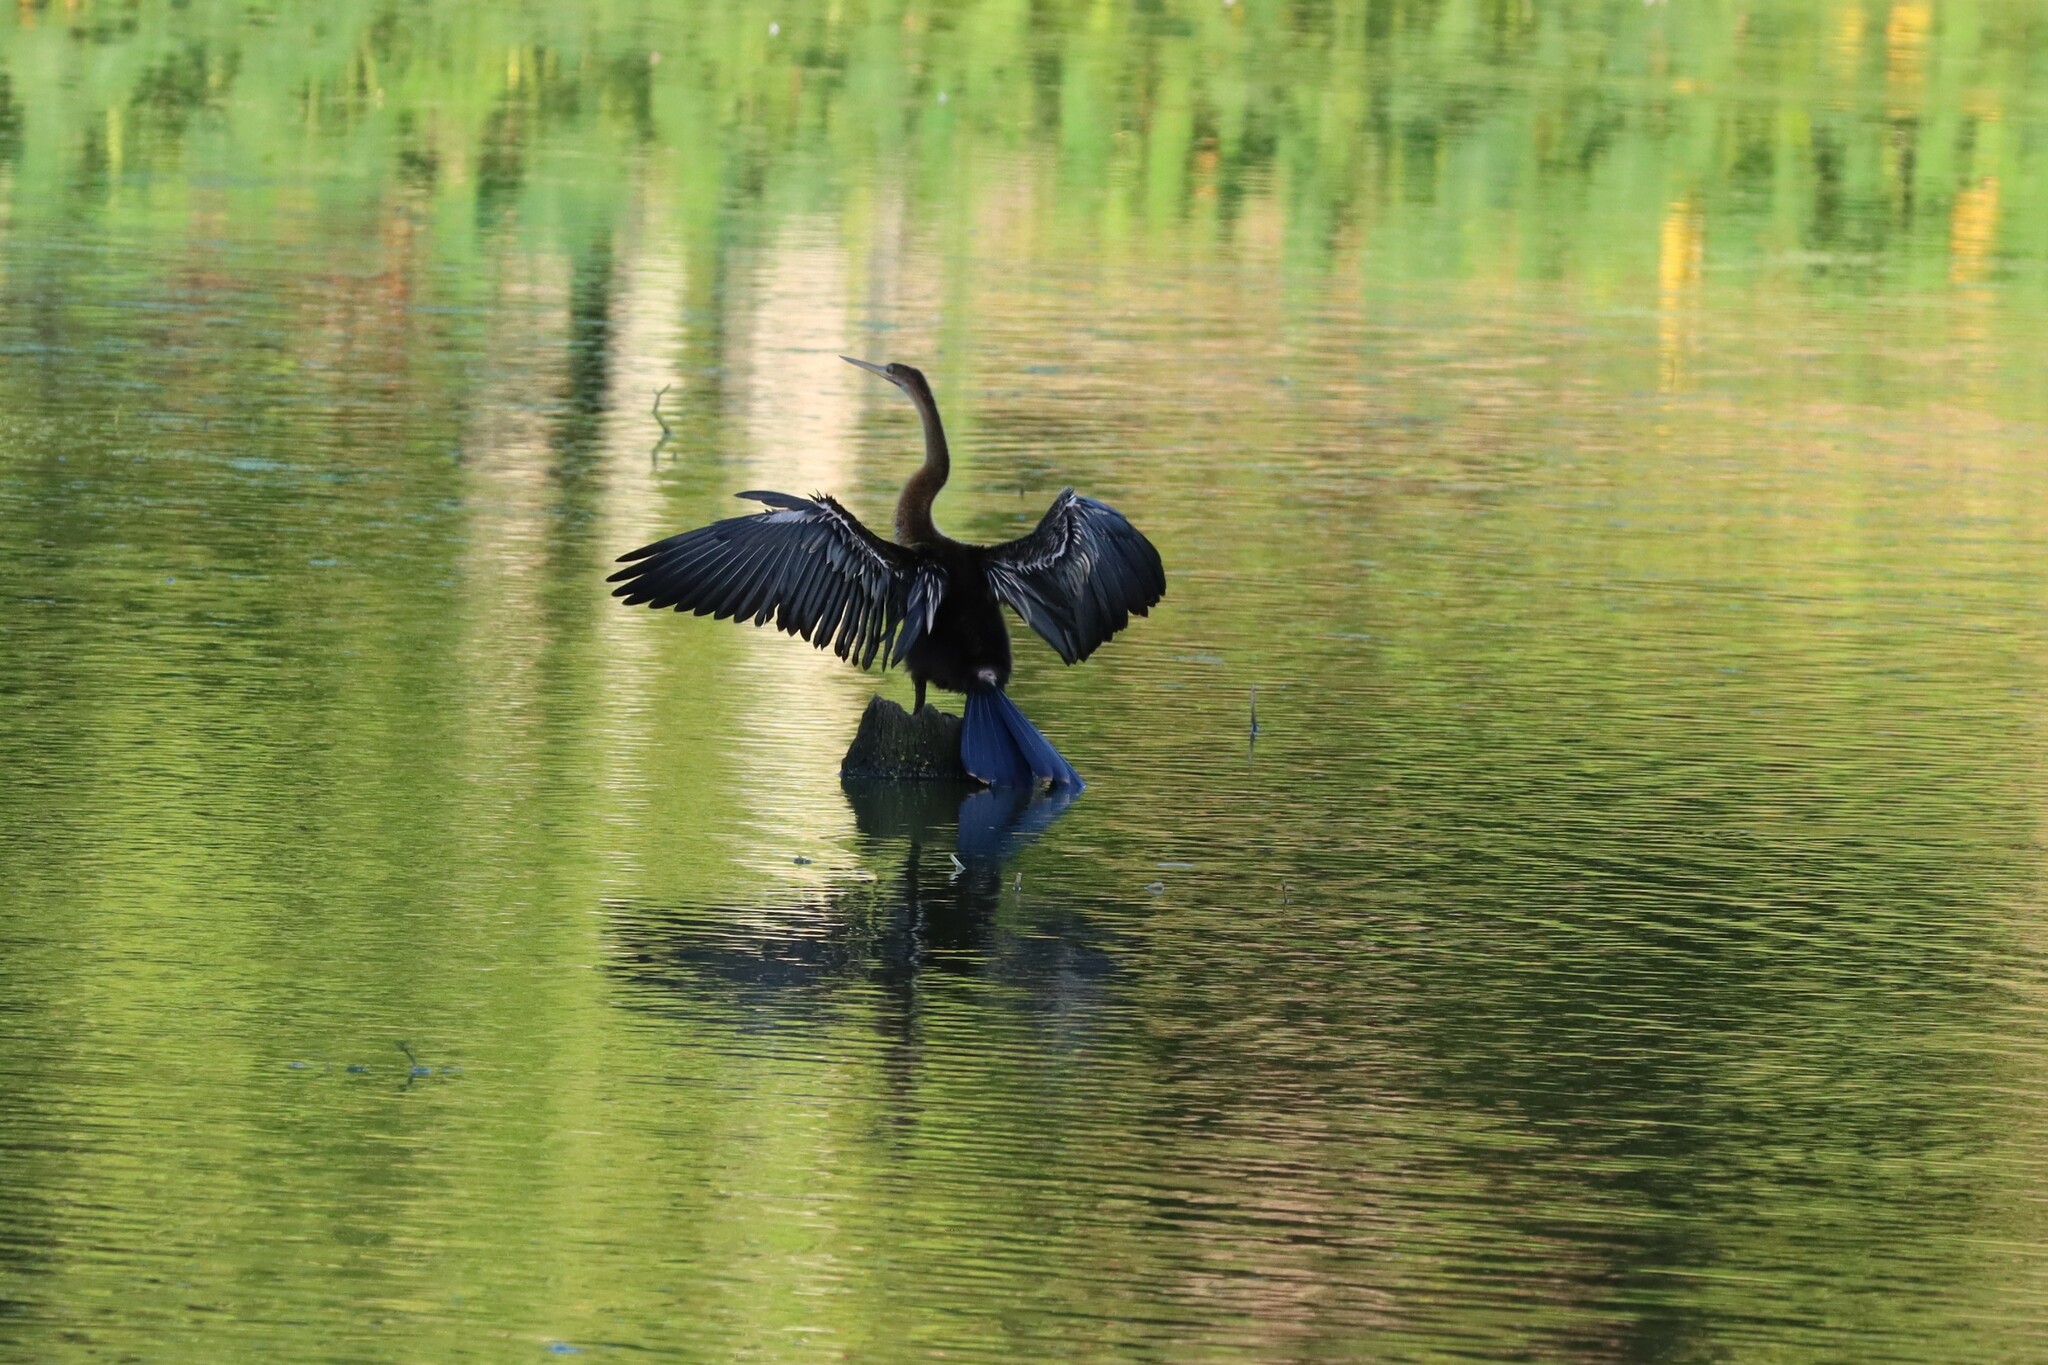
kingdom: Animalia
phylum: Chordata
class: Aves
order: Suliformes
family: Anhingidae
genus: Anhinga
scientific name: Anhinga anhinga
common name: Anhinga
